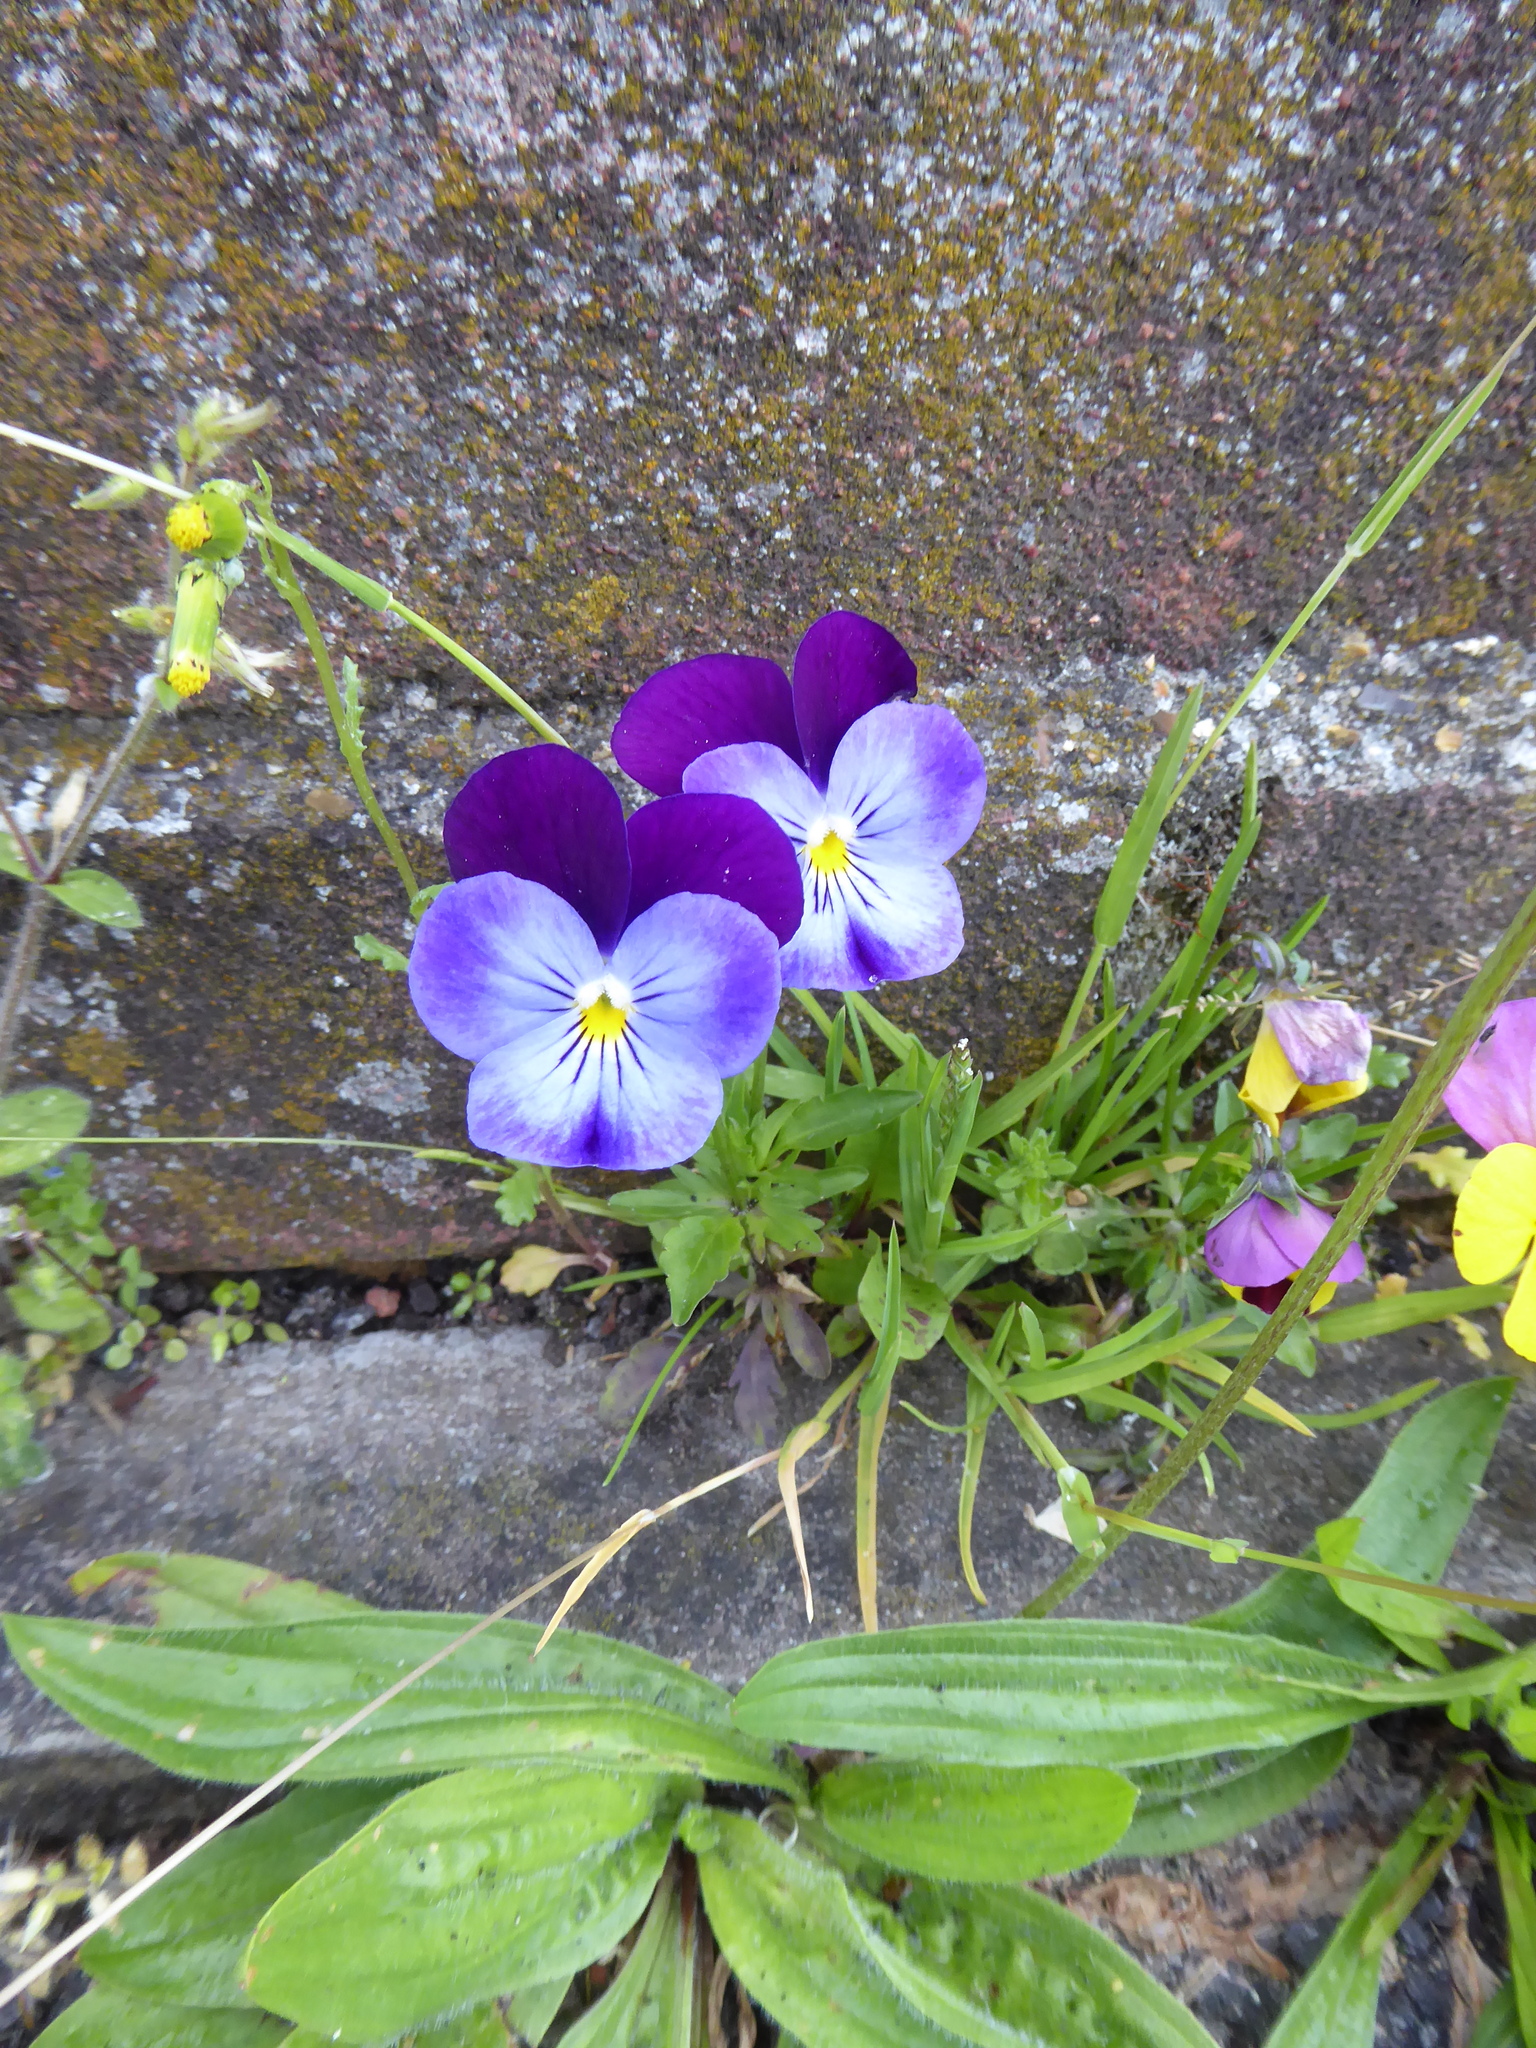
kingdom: Plantae
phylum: Tracheophyta
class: Magnoliopsida
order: Malpighiales
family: Violaceae
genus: Viola
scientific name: Viola williamsii
